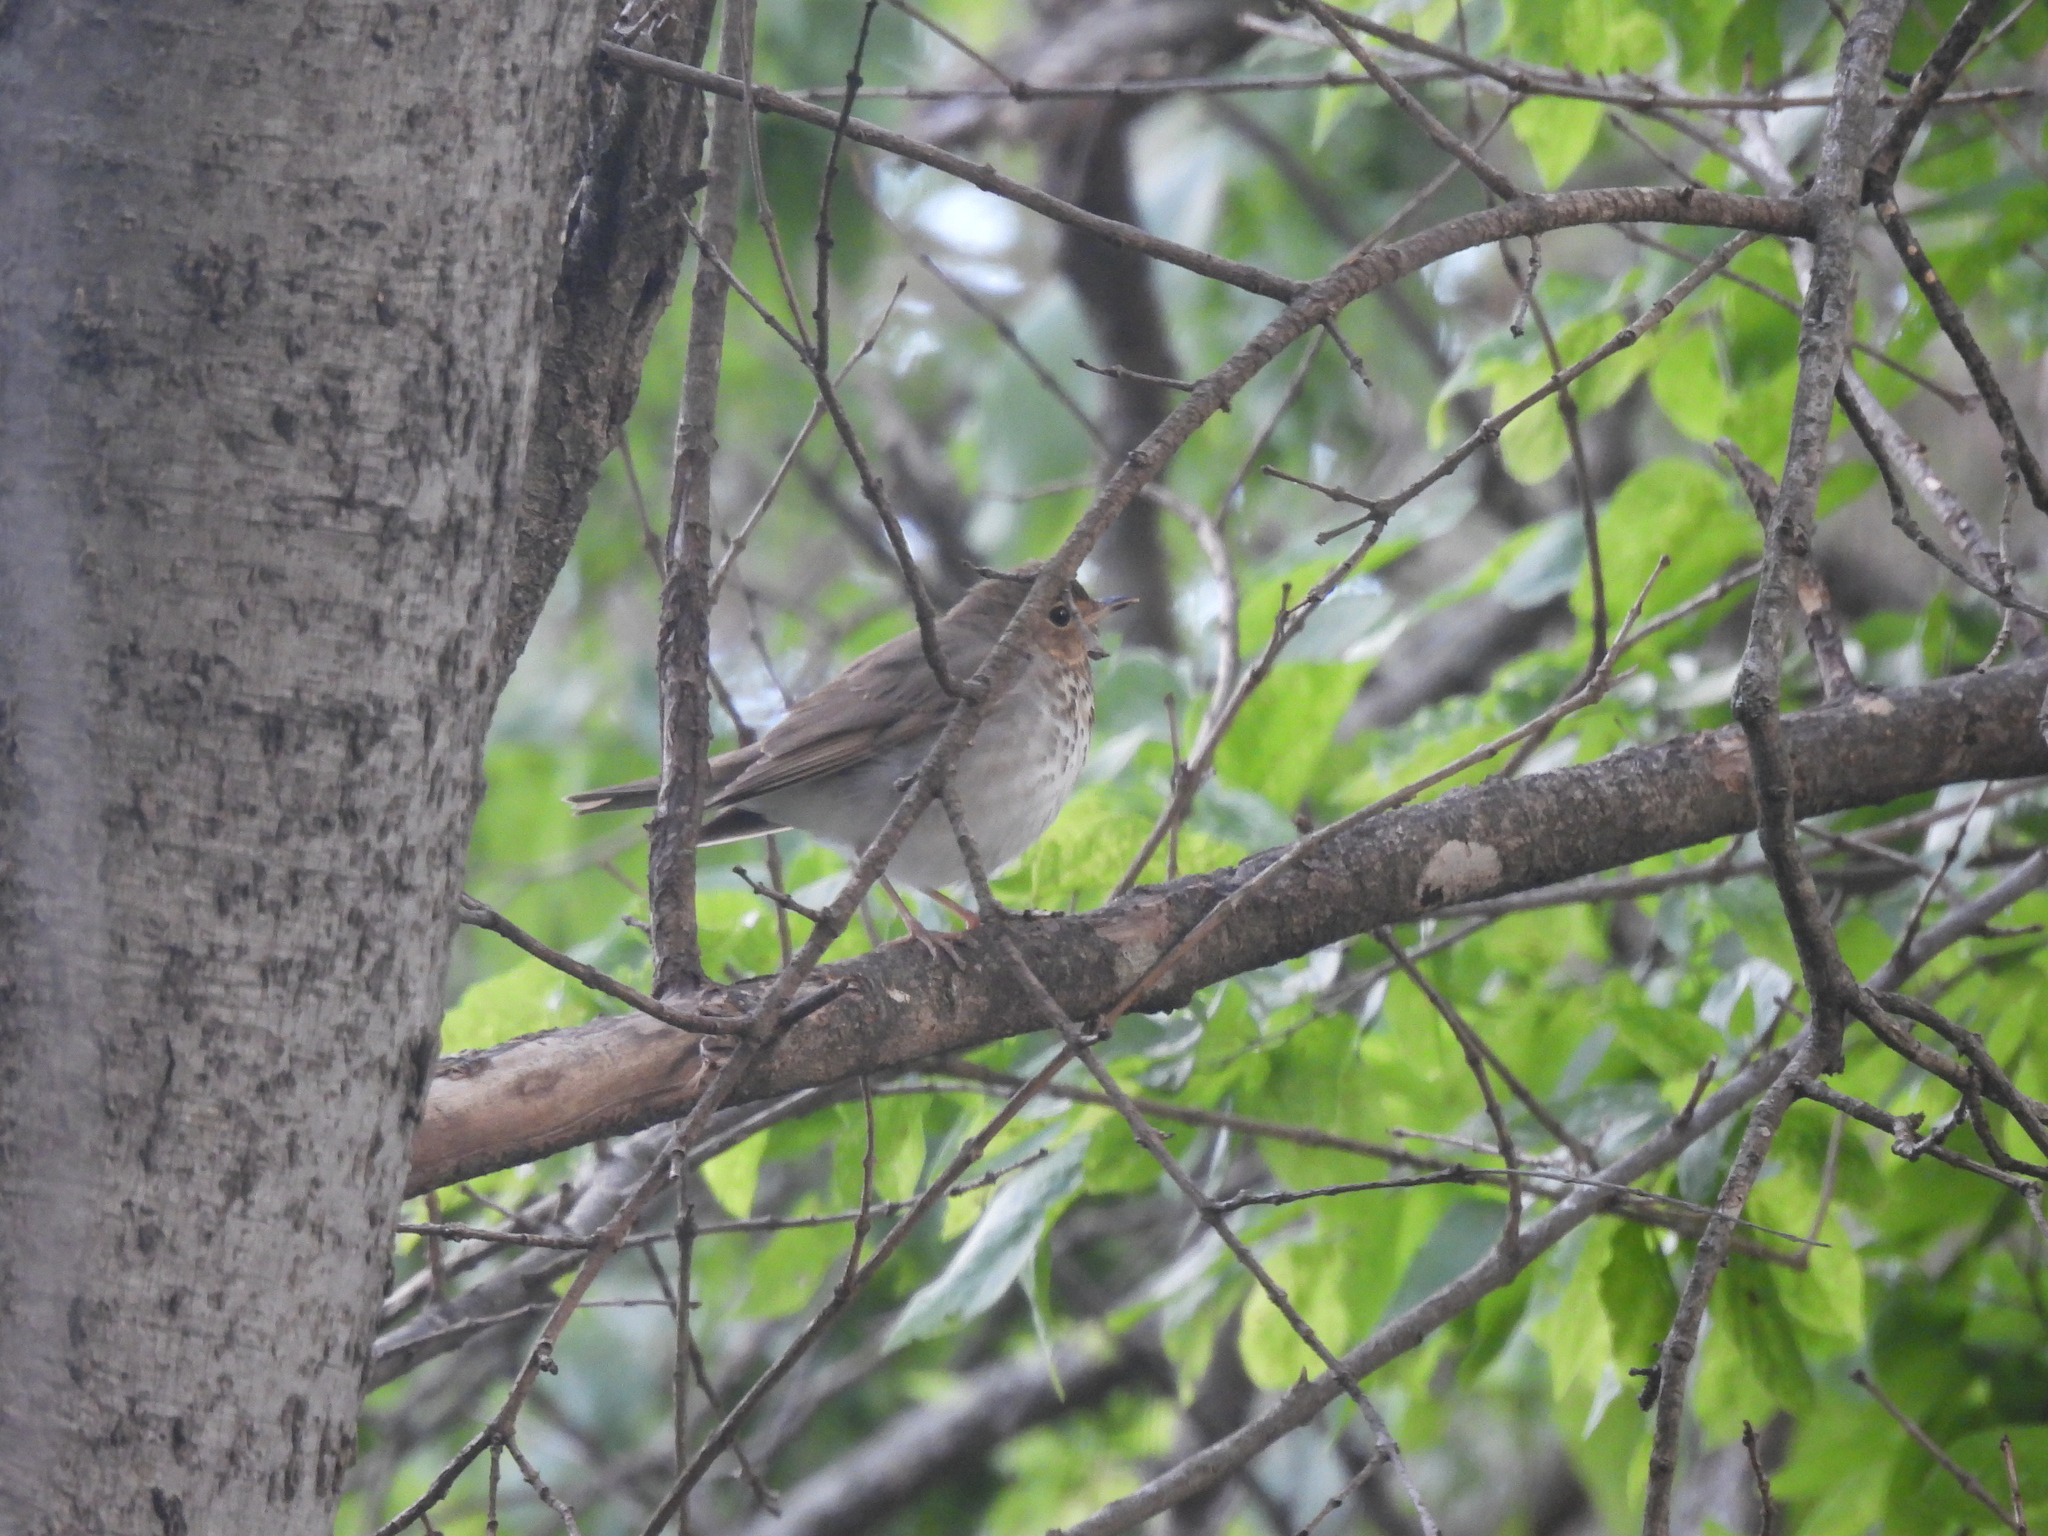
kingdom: Animalia
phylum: Chordata
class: Aves
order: Passeriformes
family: Turdidae
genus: Catharus
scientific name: Catharus ustulatus
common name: Swainson's thrush
